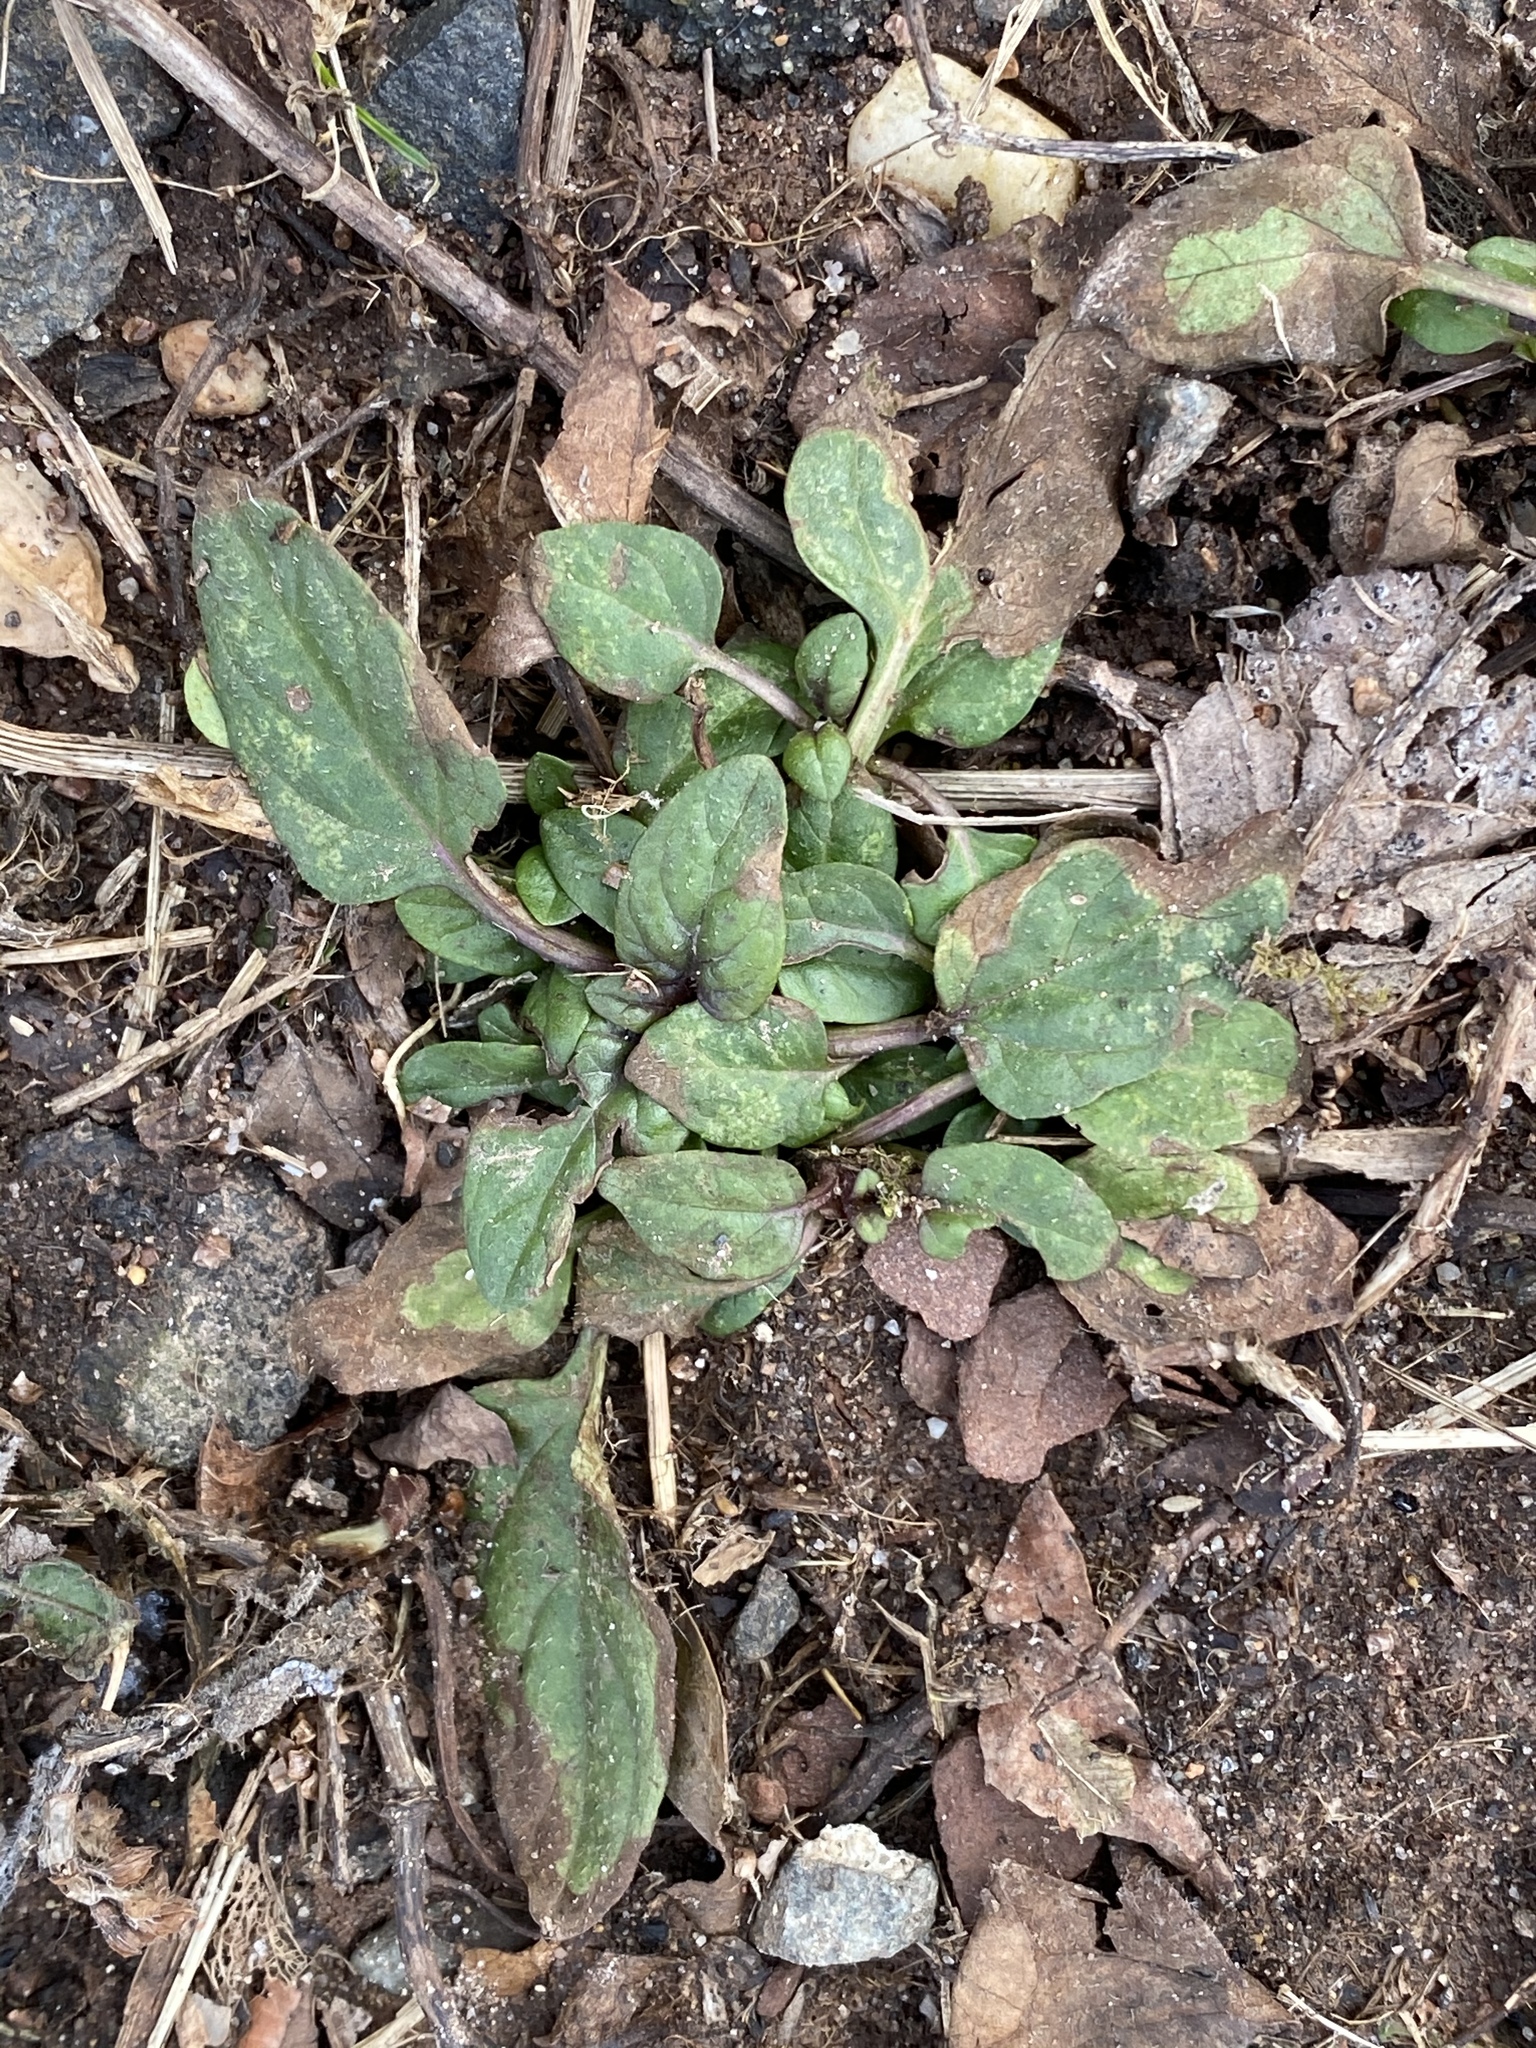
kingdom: Plantae
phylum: Tracheophyta
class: Magnoliopsida
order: Lamiales
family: Lamiaceae
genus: Prunella
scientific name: Prunella vulgaris
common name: Heal-all
